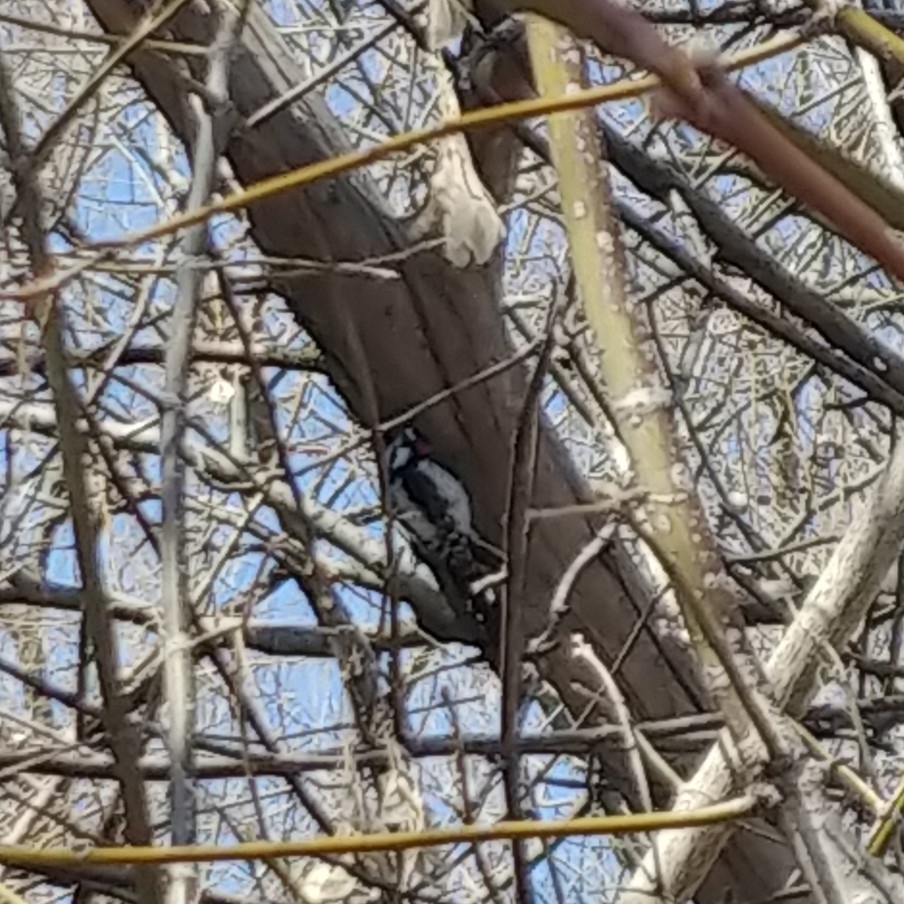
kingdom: Animalia
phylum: Chordata
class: Aves
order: Piciformes
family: Picidae
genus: Dryobates
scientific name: Dryobates pubescens
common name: Downy woodpecker
